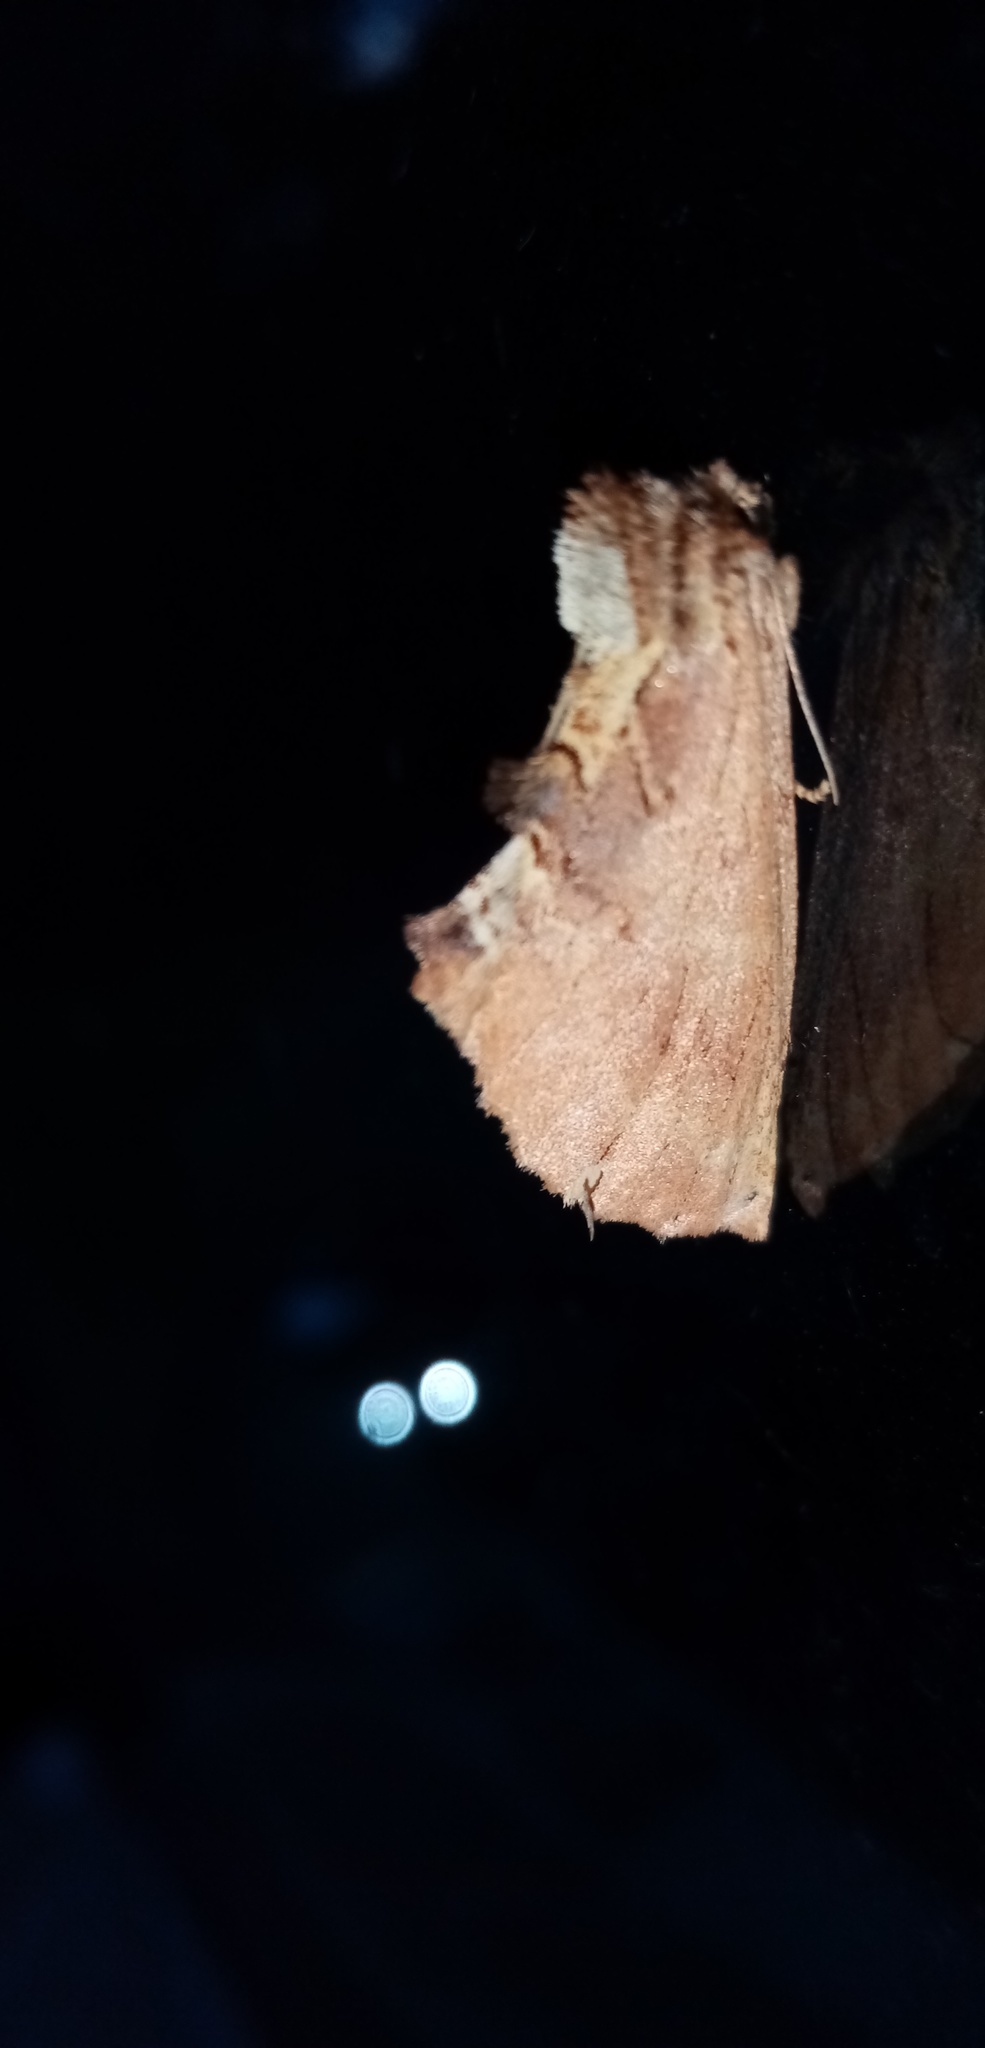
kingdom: Animalia
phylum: Arthropoda
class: Insecta
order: Lepidoptera
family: Notodontidae
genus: Ptilodon
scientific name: Ptilodon capucina
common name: Coxcomb prominent
